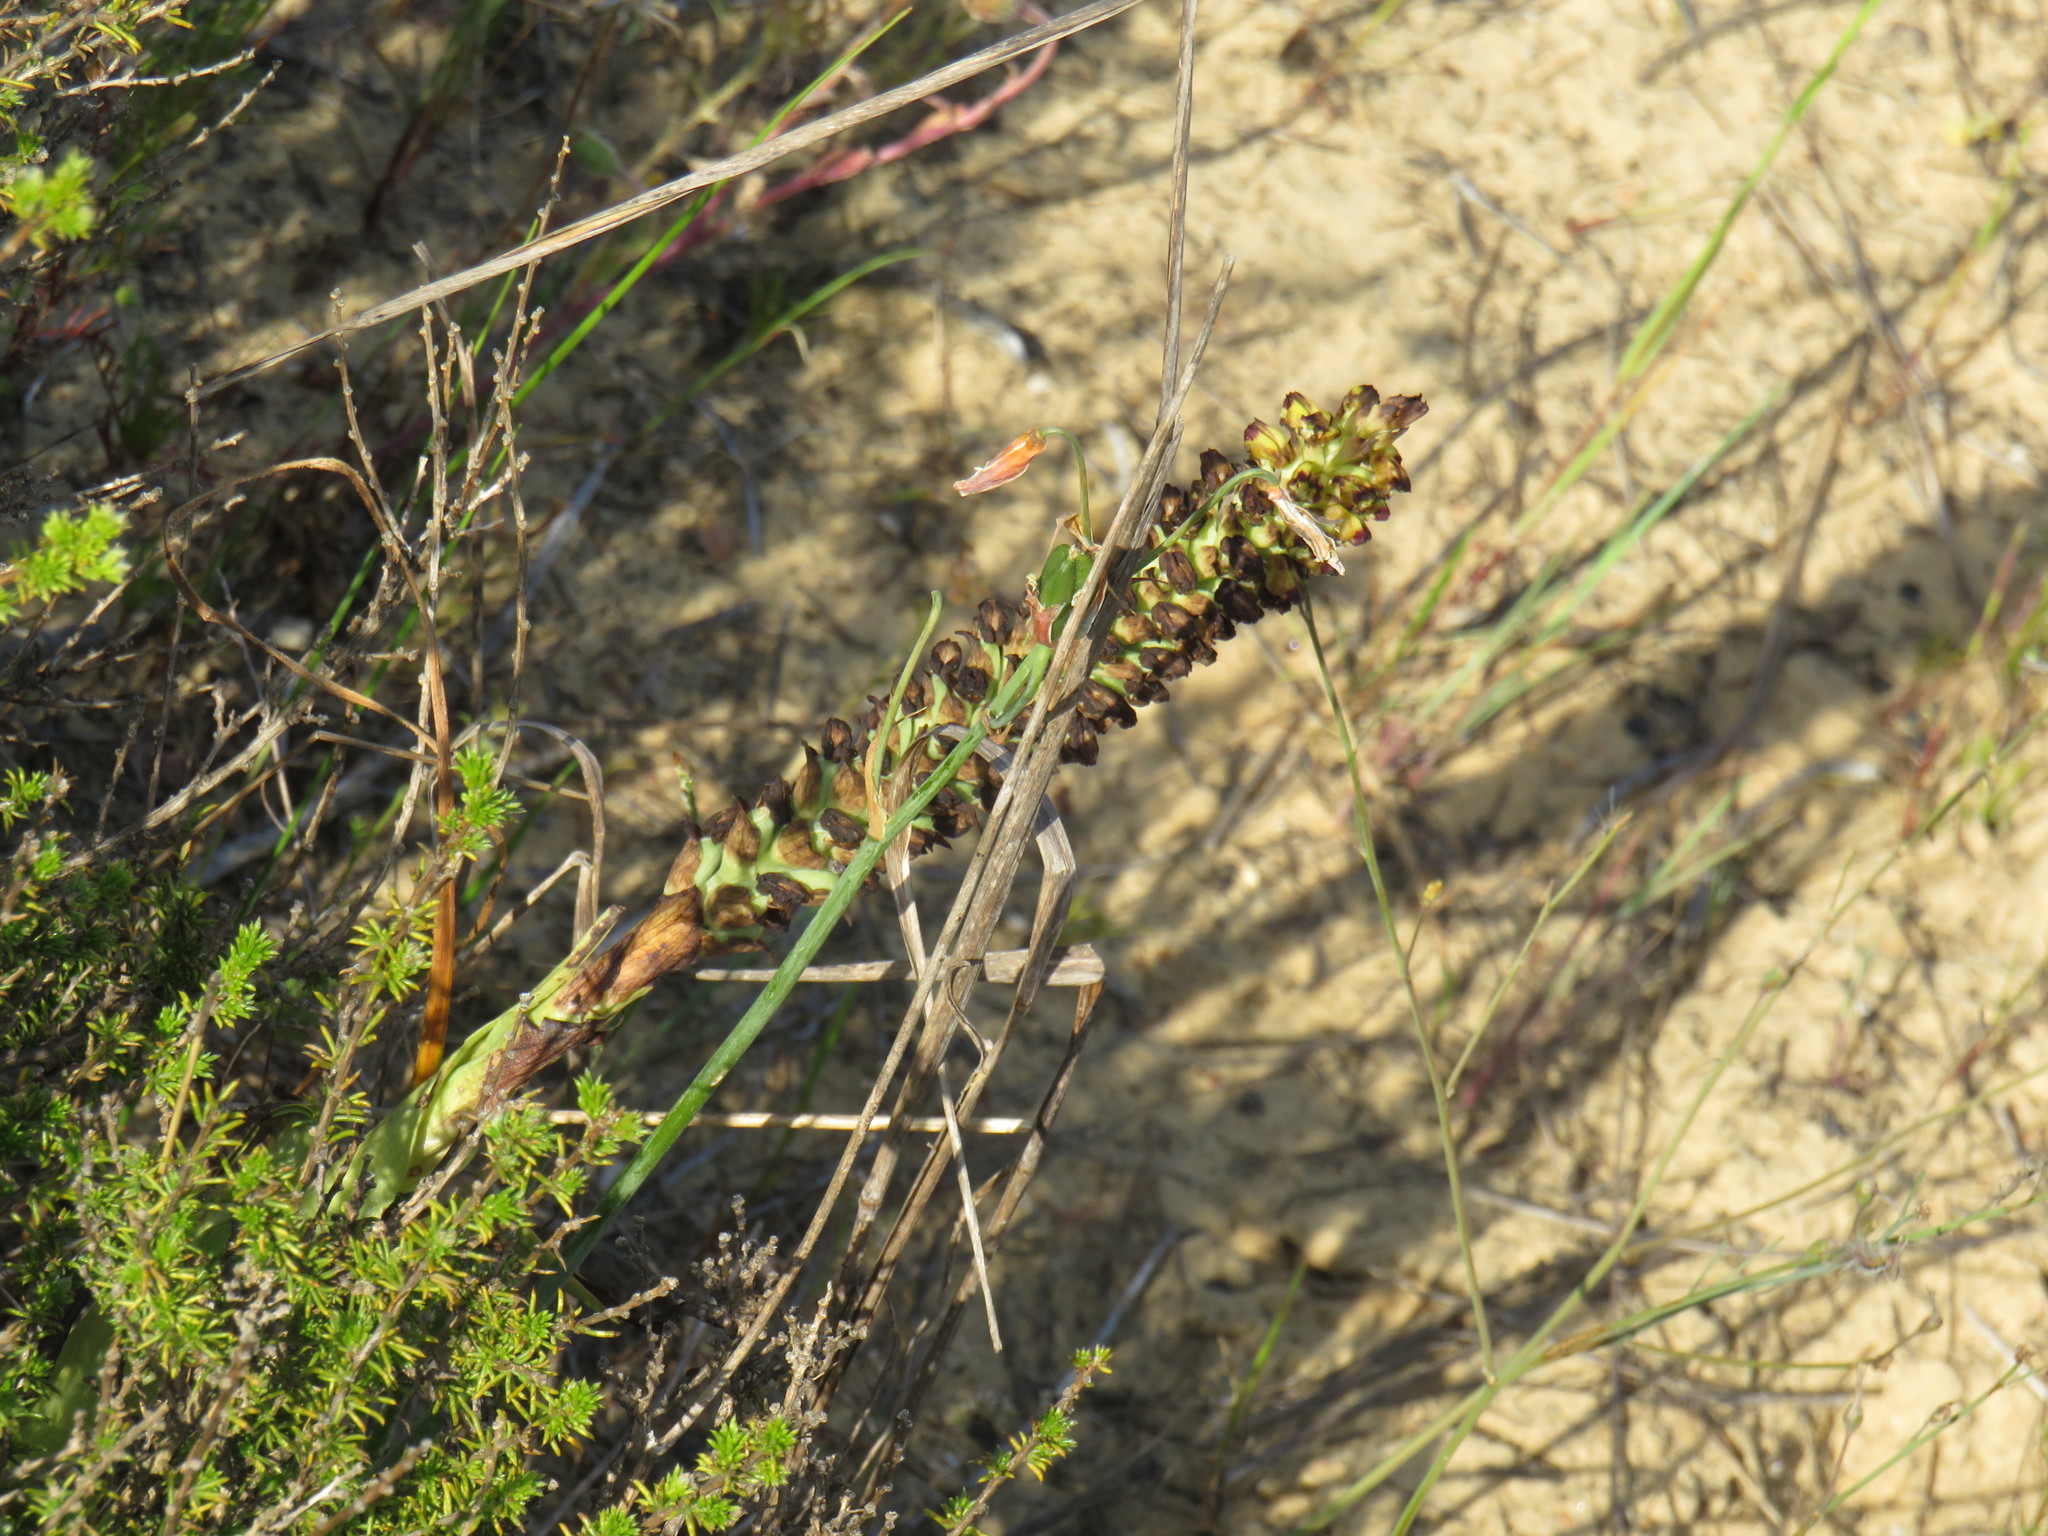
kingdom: Plantae
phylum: Tracheophyta
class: Liliopsida
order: Asparagales
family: Orchidaceae
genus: Corycium
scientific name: Corycium orobanchoides
